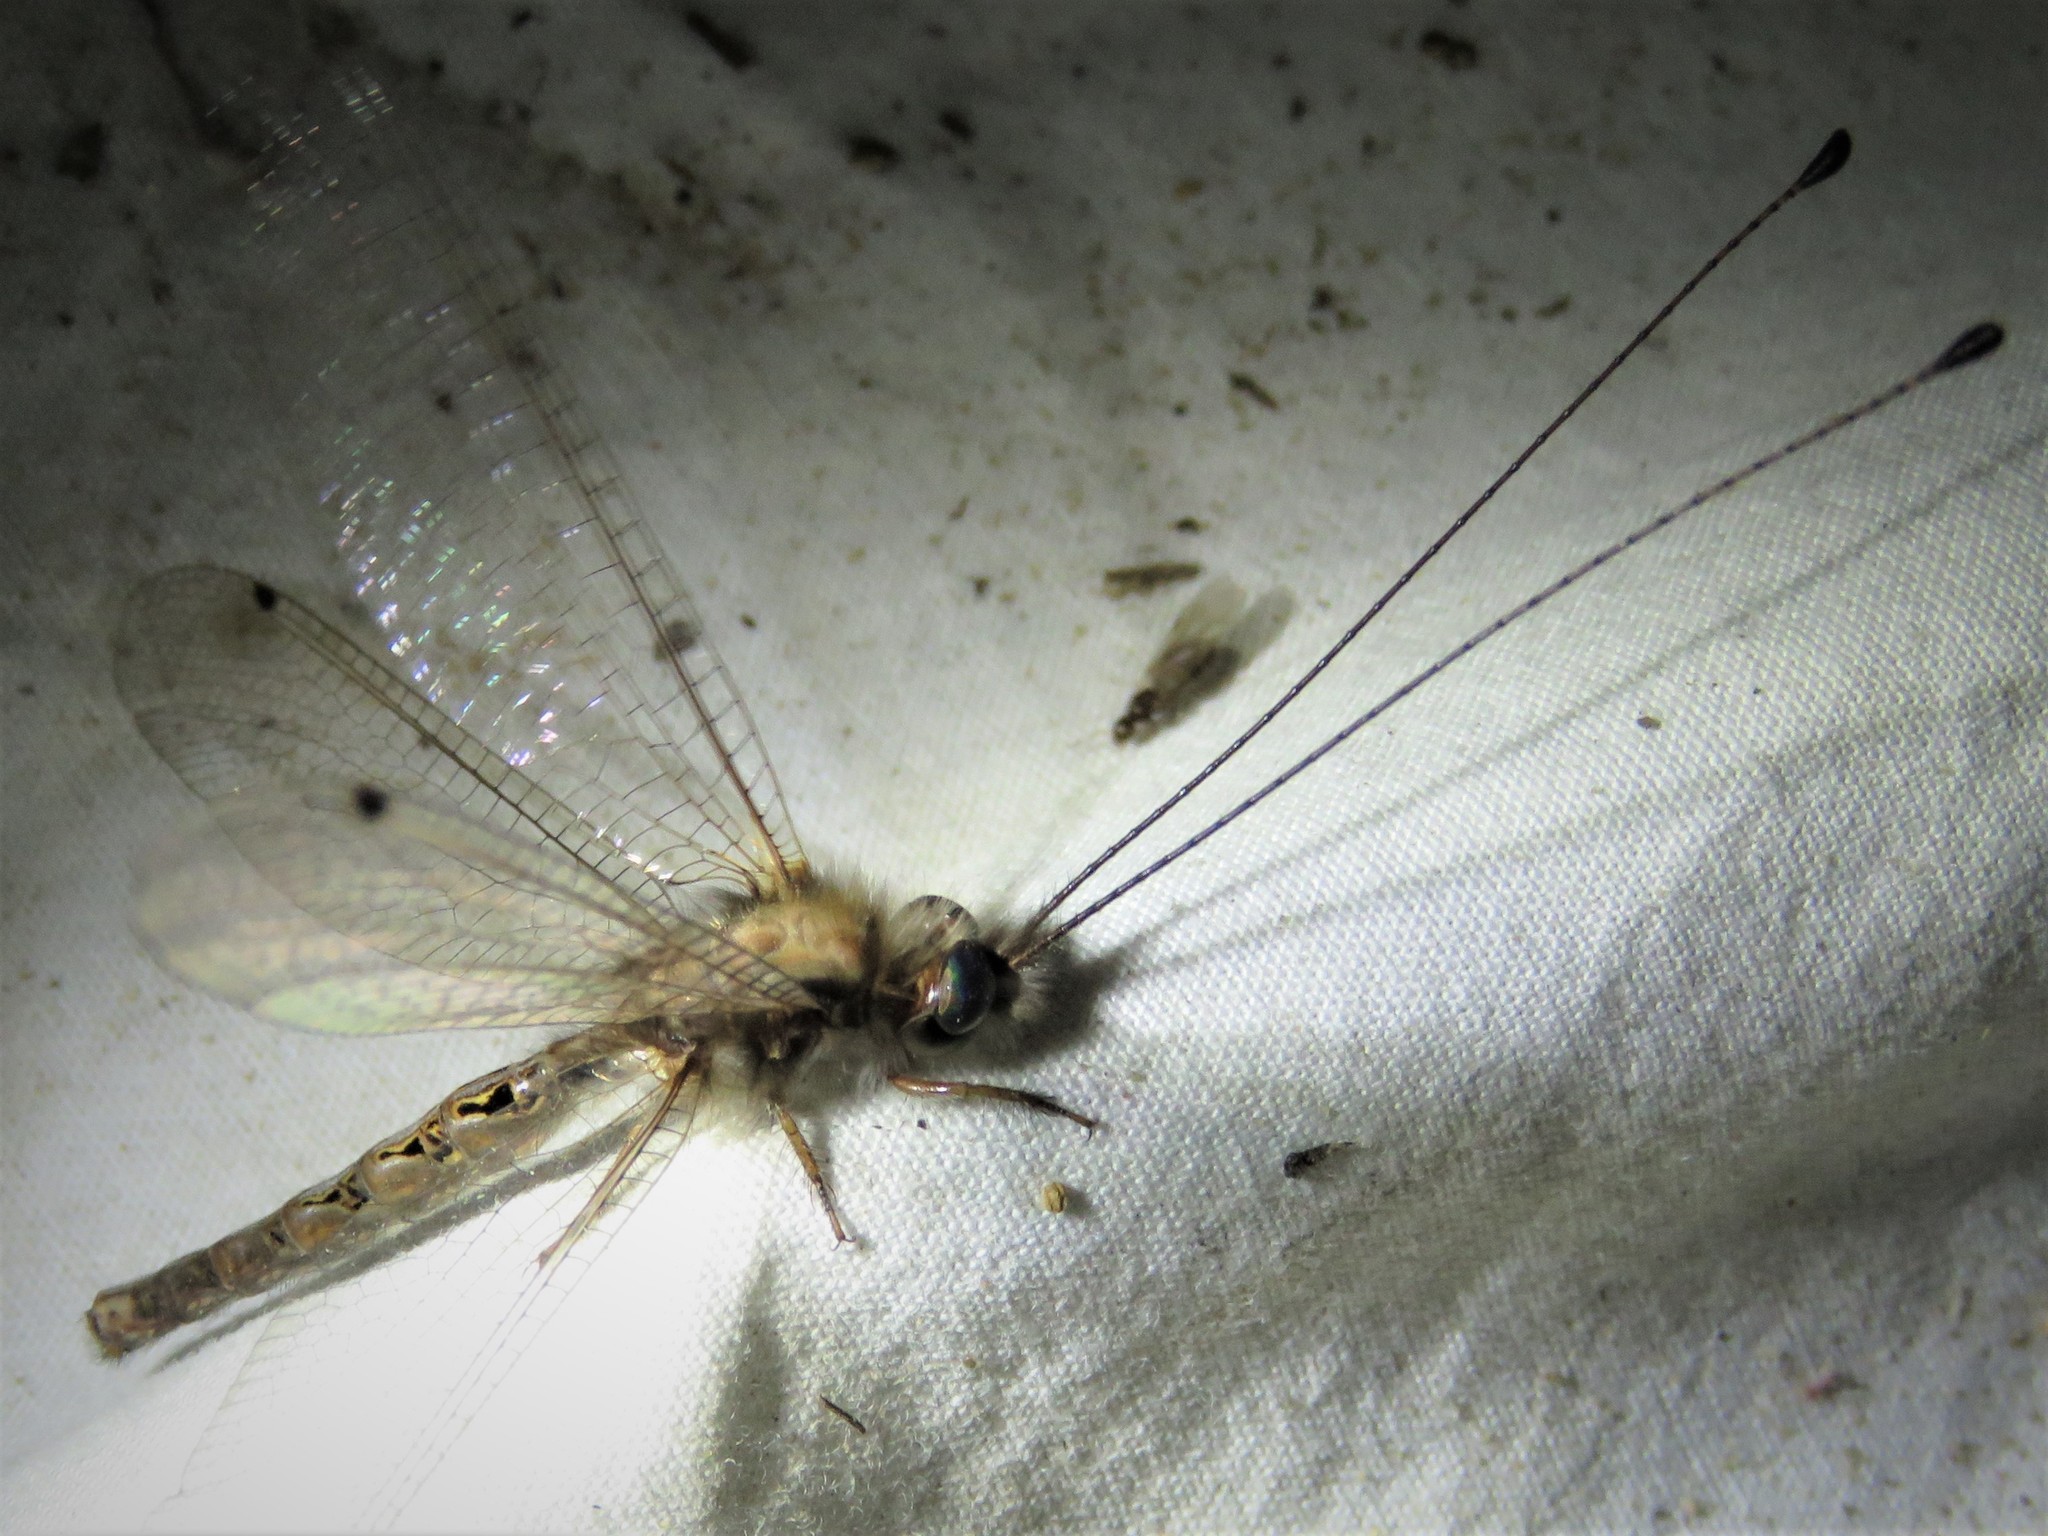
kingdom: Animalia
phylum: Arthropoda
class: Insecta
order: Neuroptera
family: Ascalaphidae
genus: Ululodes
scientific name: Ululodes macleayanus
